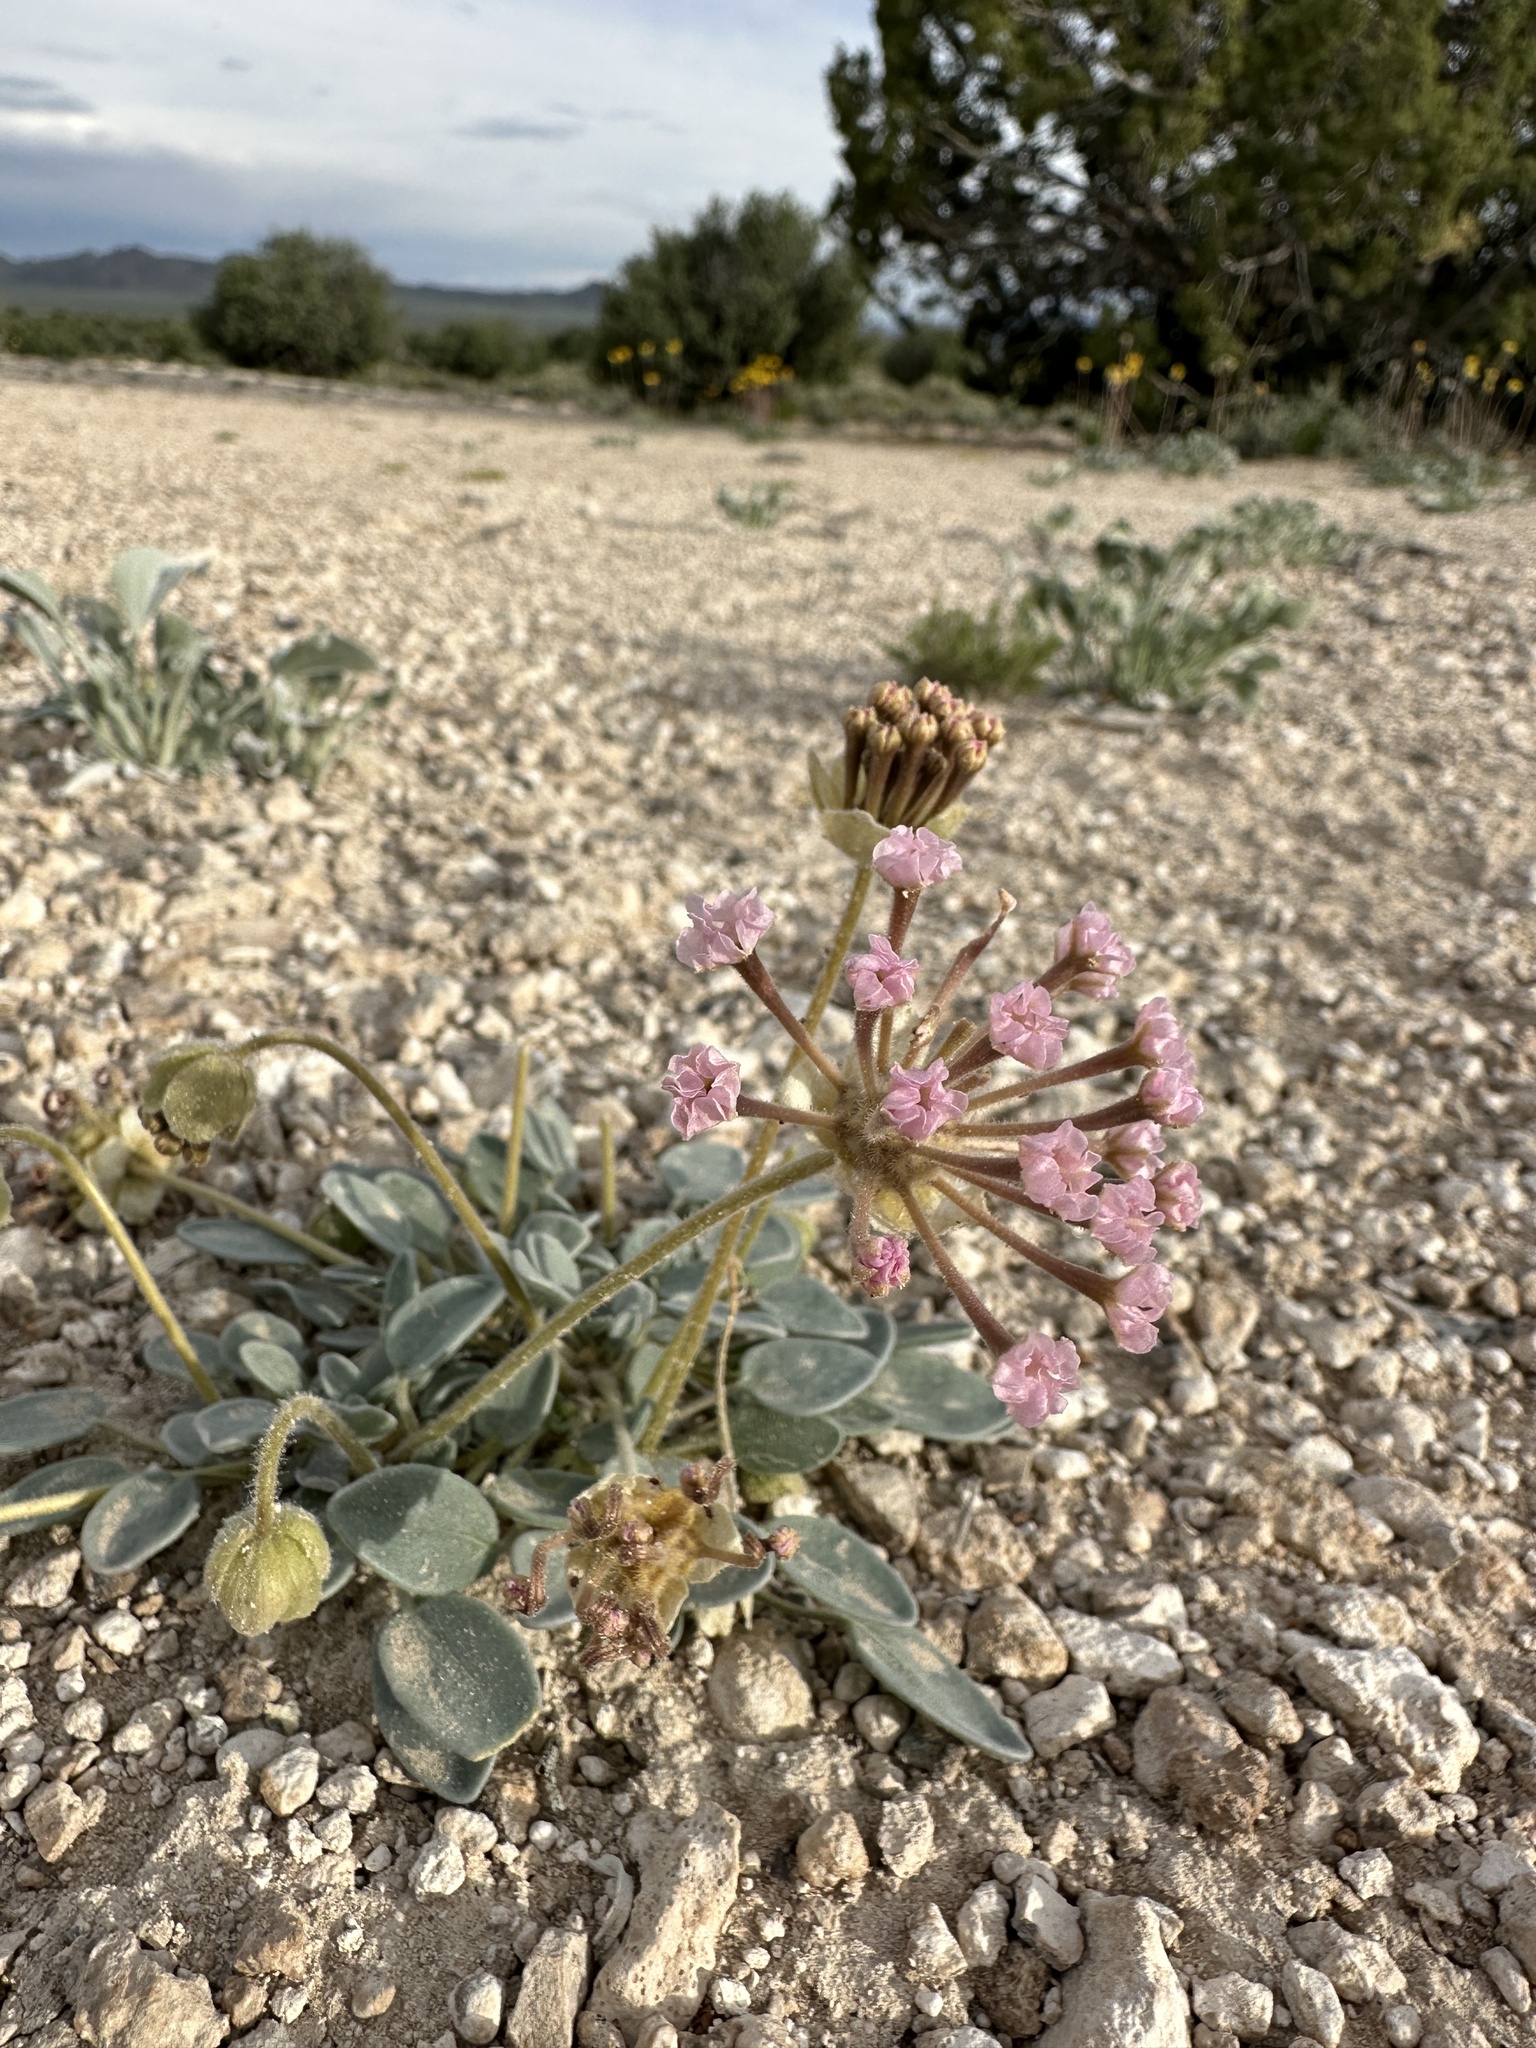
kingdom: Plantae
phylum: Tracheophyta
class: Magnoliopsida
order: Caryophyllales
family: Nyctaginaceae
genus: Abronia
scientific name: Abronia nana
